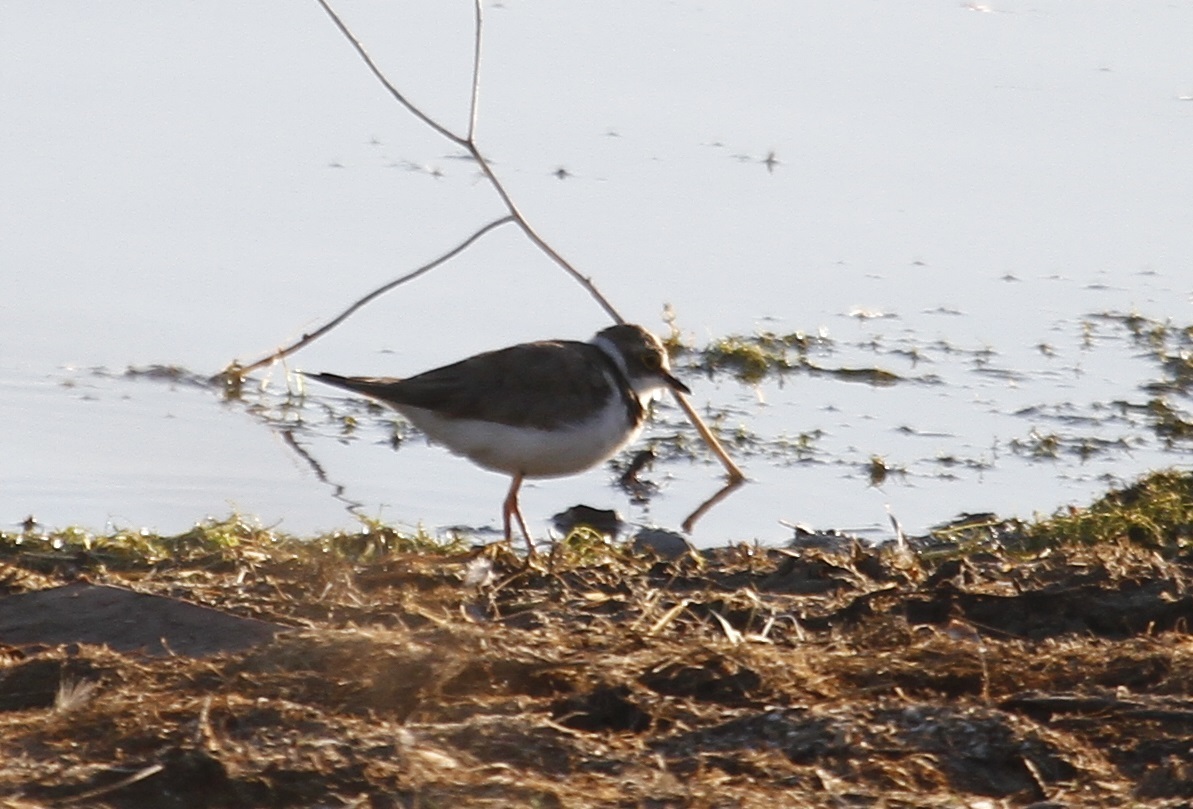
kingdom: Animalia
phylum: Chordata
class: Aves
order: Charadriiformes
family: Charadriidae
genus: Charadrius
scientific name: Charadrius dubius
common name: Little ringed plover
